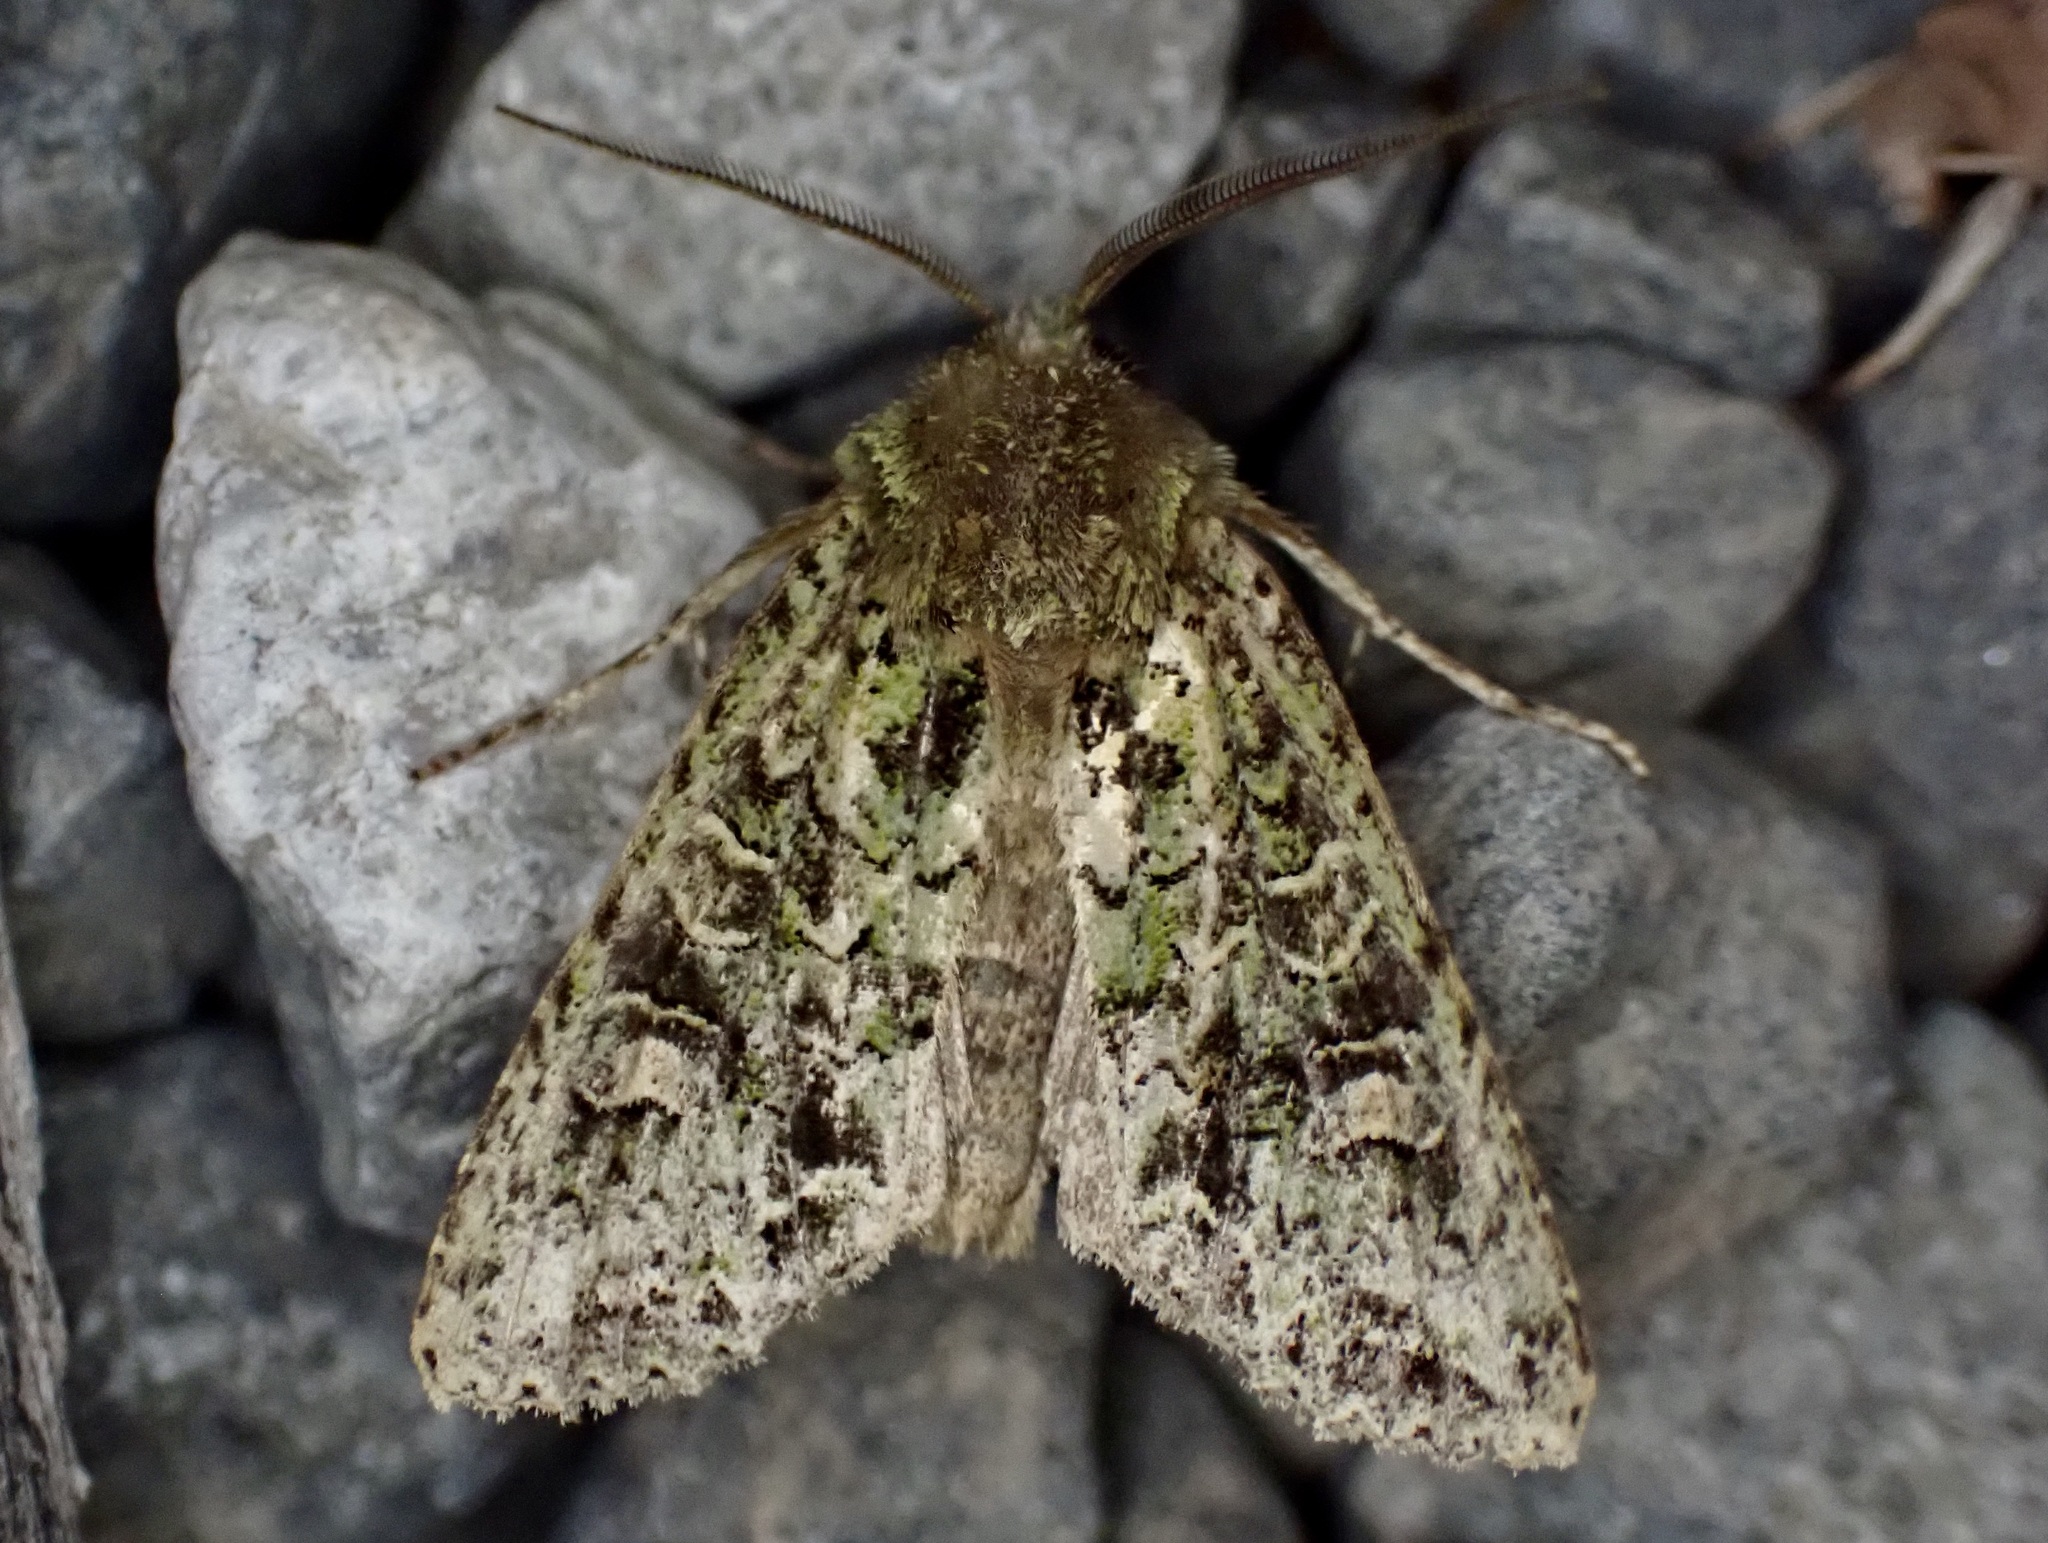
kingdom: Animalia
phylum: Arthropoda
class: Insecta
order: Lepidoptera
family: Noctuidae
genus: Ichneutica
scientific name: Ichneutica
